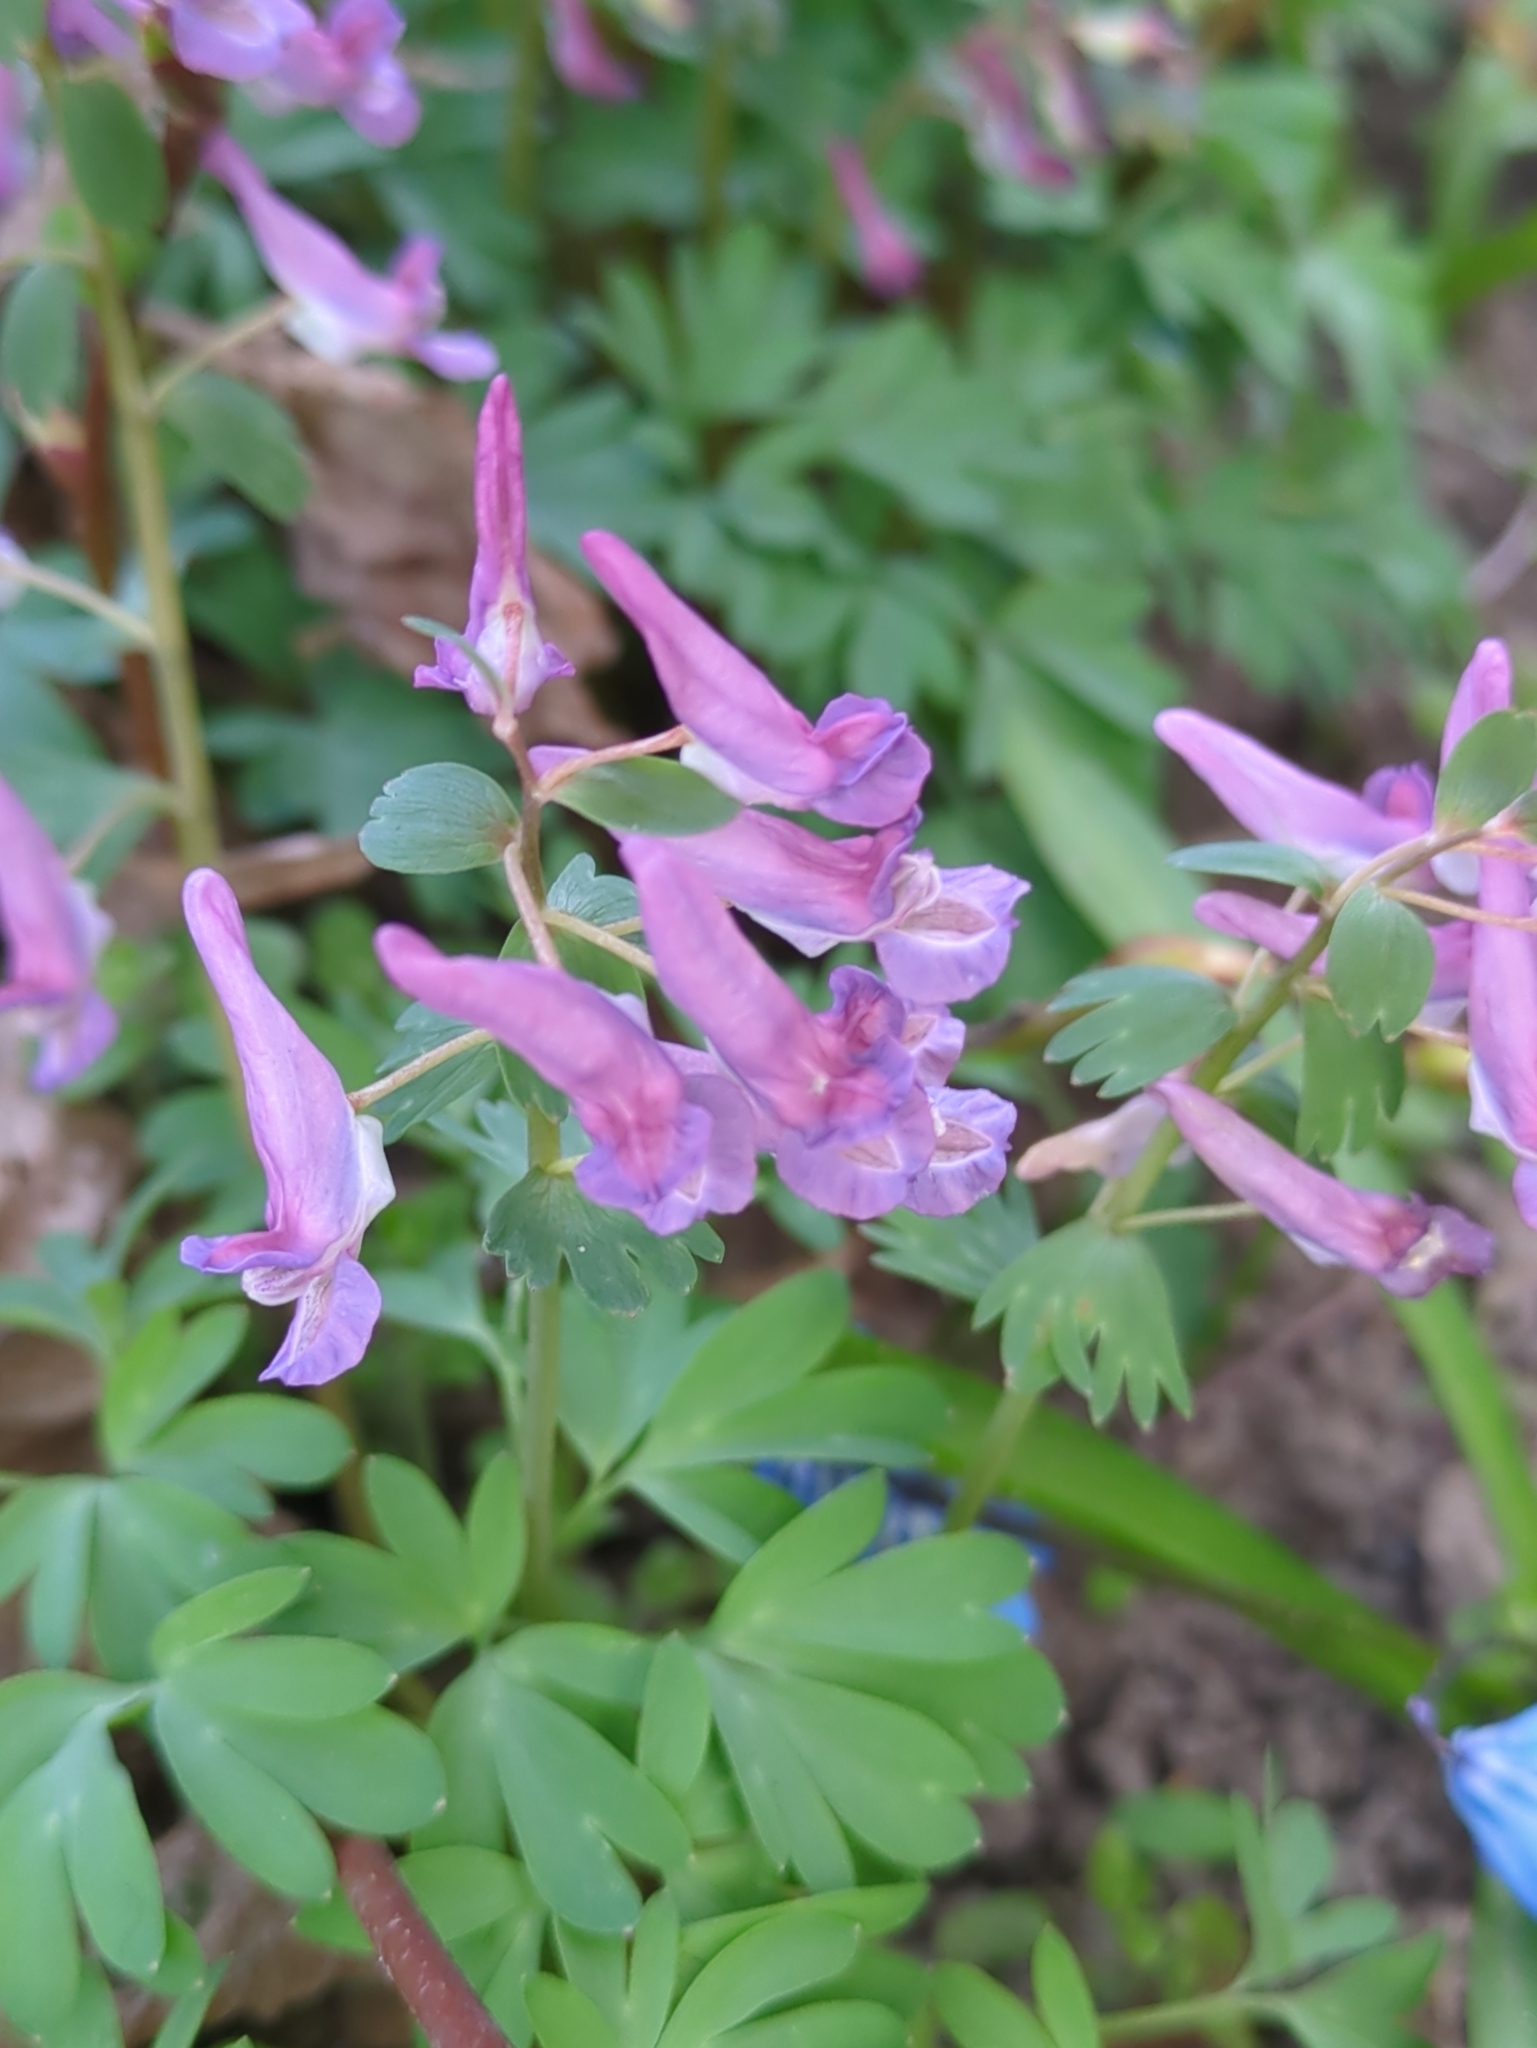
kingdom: Plantae
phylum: Tracheophyta
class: Magnoliopsida
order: Ranunculales
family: Papaveraceae
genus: Corydalis
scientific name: Corydalis solida
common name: Bird-in-a-bush
